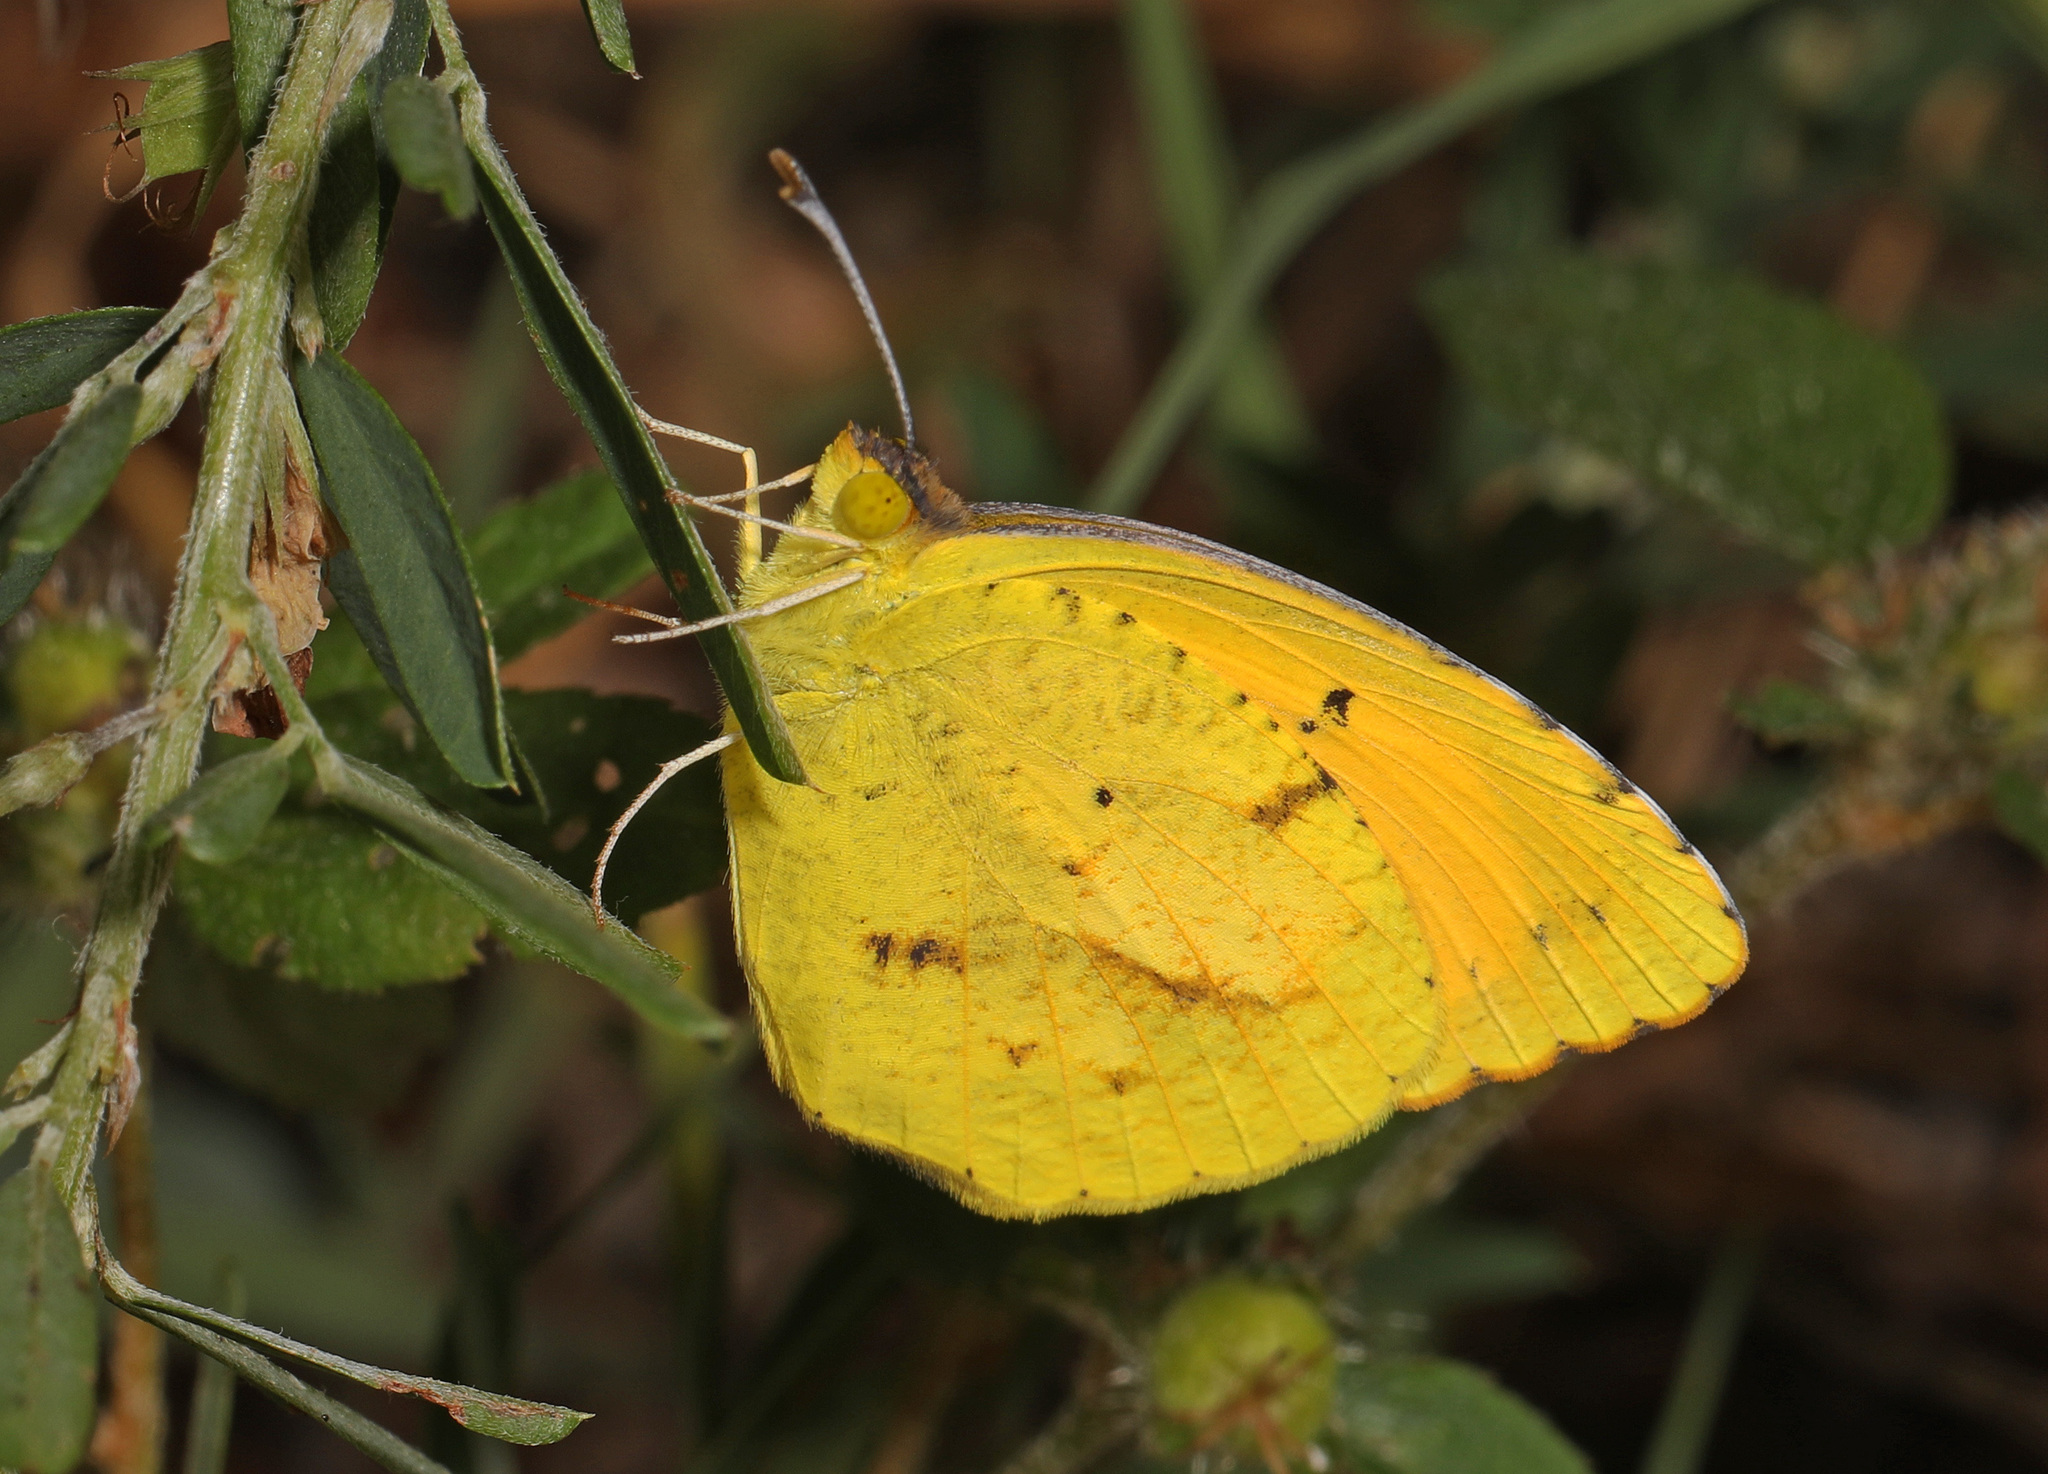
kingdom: Animalia
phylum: Arthropoda
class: Insecta
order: Lepidoptera
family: Pieridae
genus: Abaeis
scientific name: Abaeis nicippe
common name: Sleepy orange
